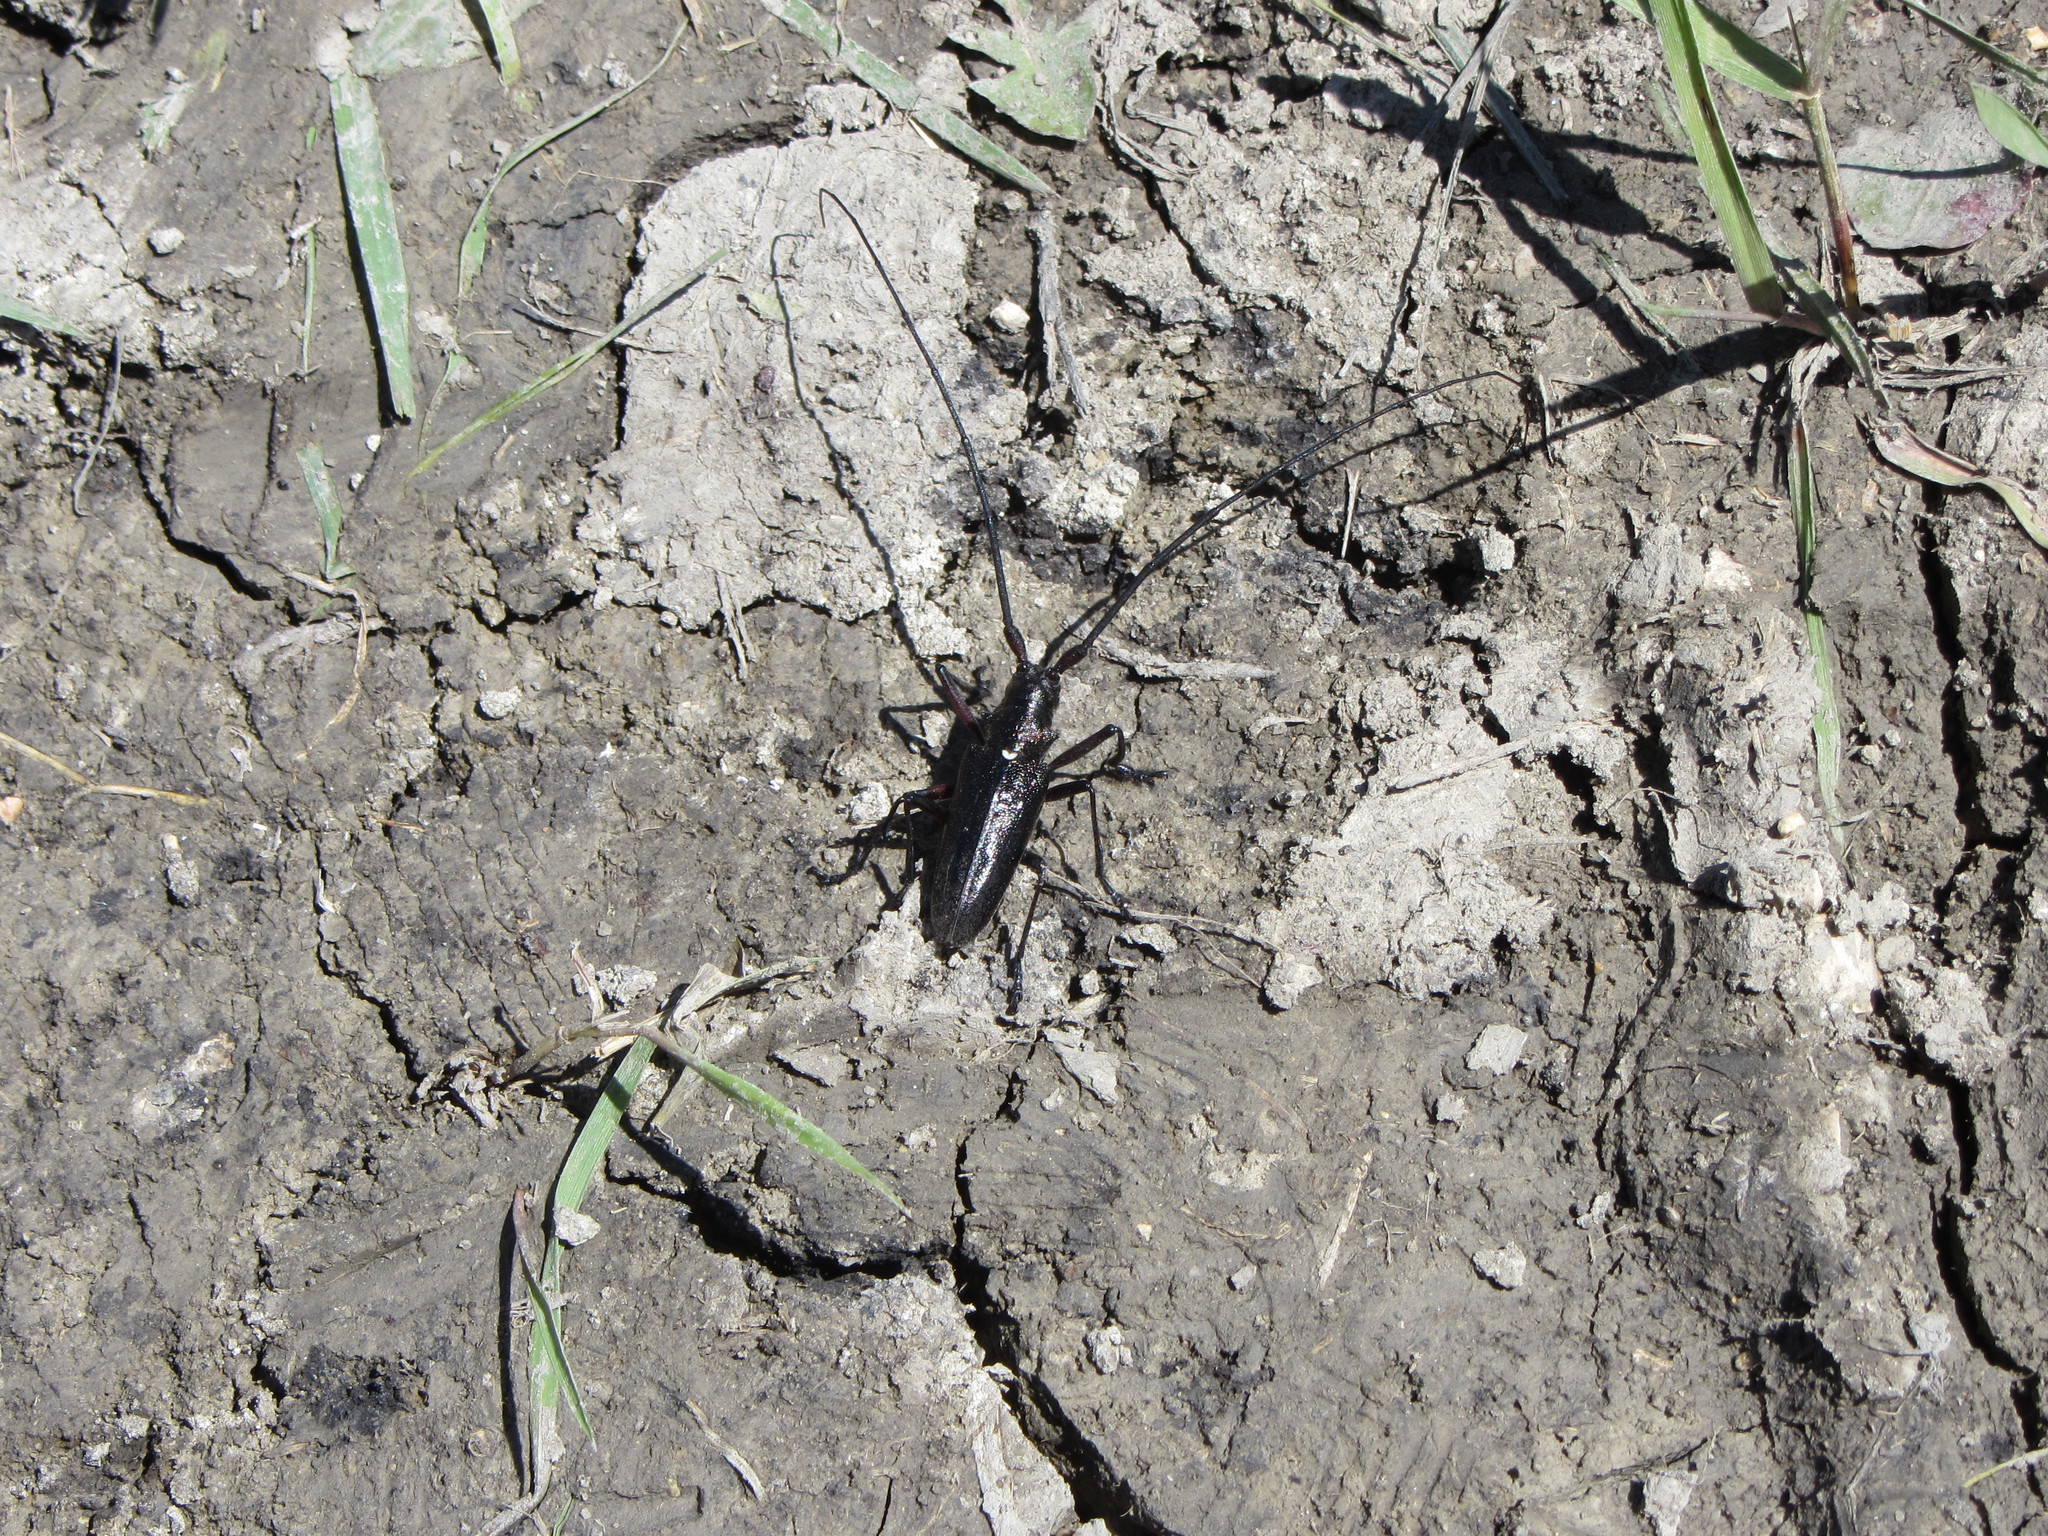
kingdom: Animalia
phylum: Arthropoda
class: Insecta
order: Coleoptera
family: Cerambycidae
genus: Monochamus
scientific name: Monochamus scutellatus
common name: White-spotted sawyer beetle
